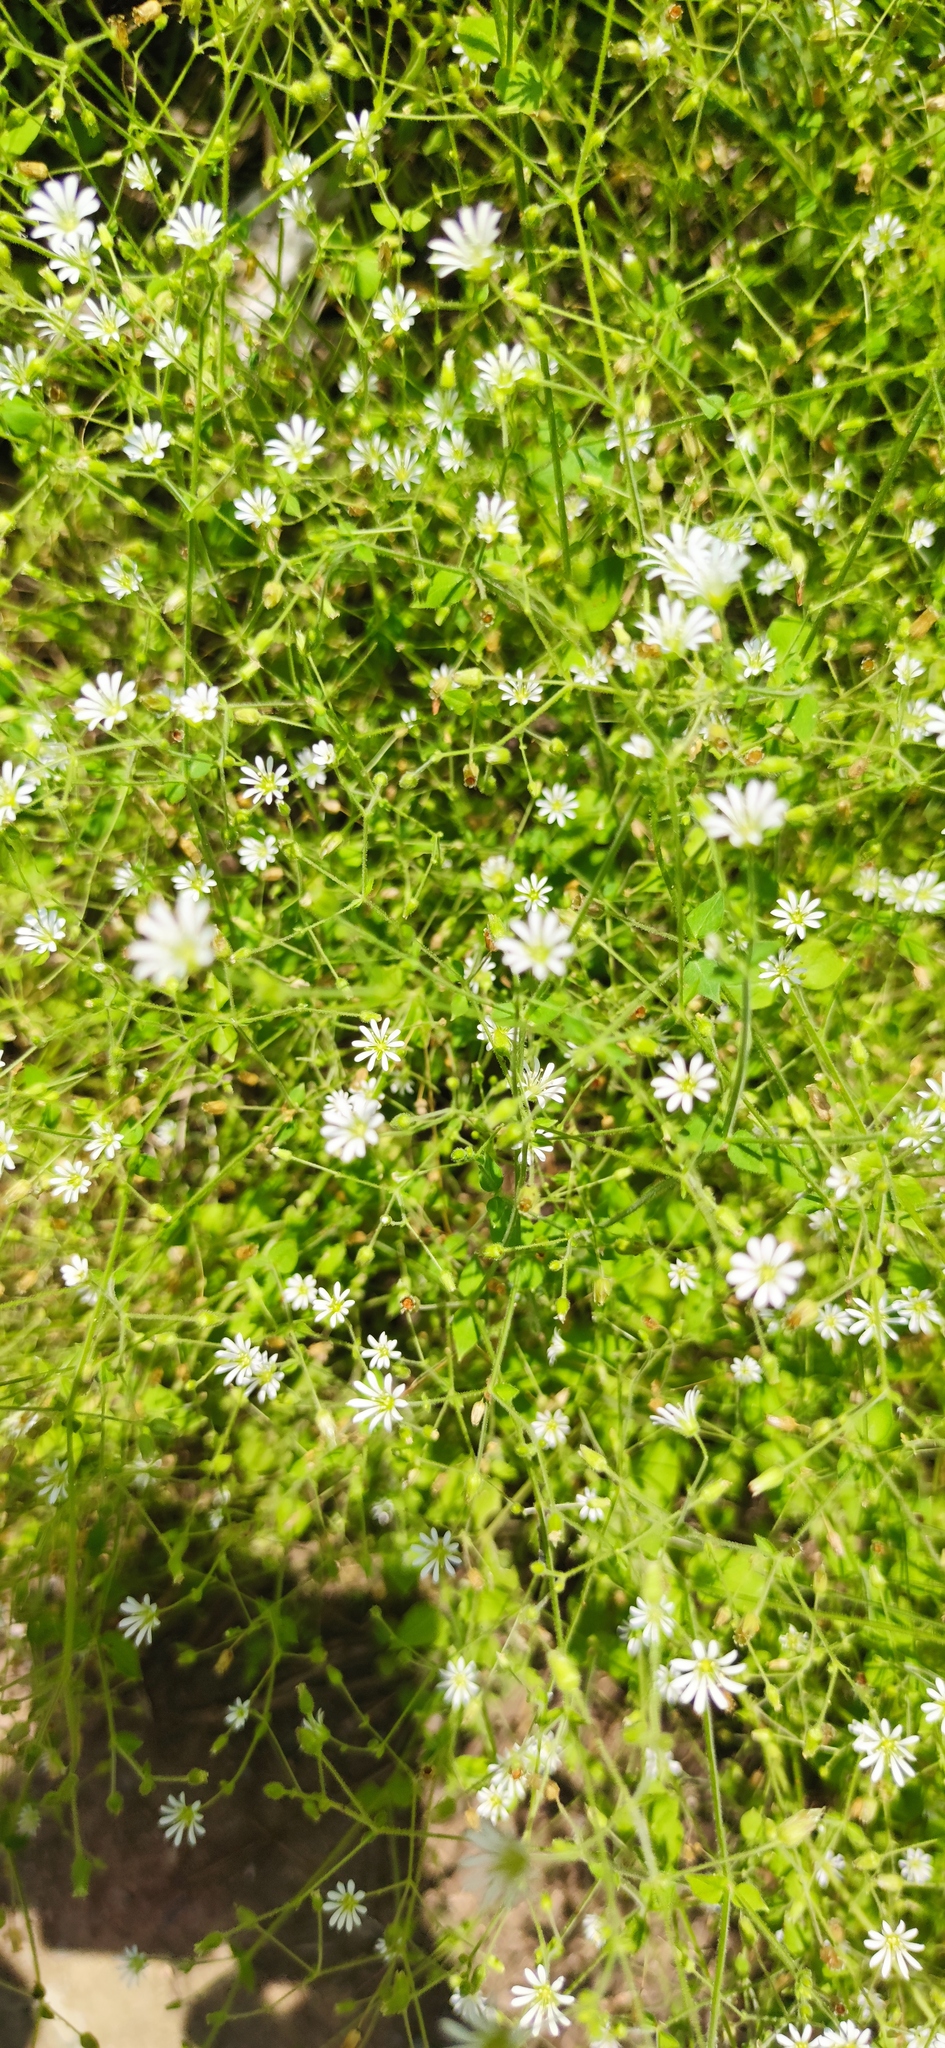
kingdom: Plantae
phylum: Tracheophyta
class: Magnoliopsida
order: Caryophyllales
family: Caryophyllaceae
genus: Stellaria
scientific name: Stellaria cuspidata
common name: Mexican chickweed
